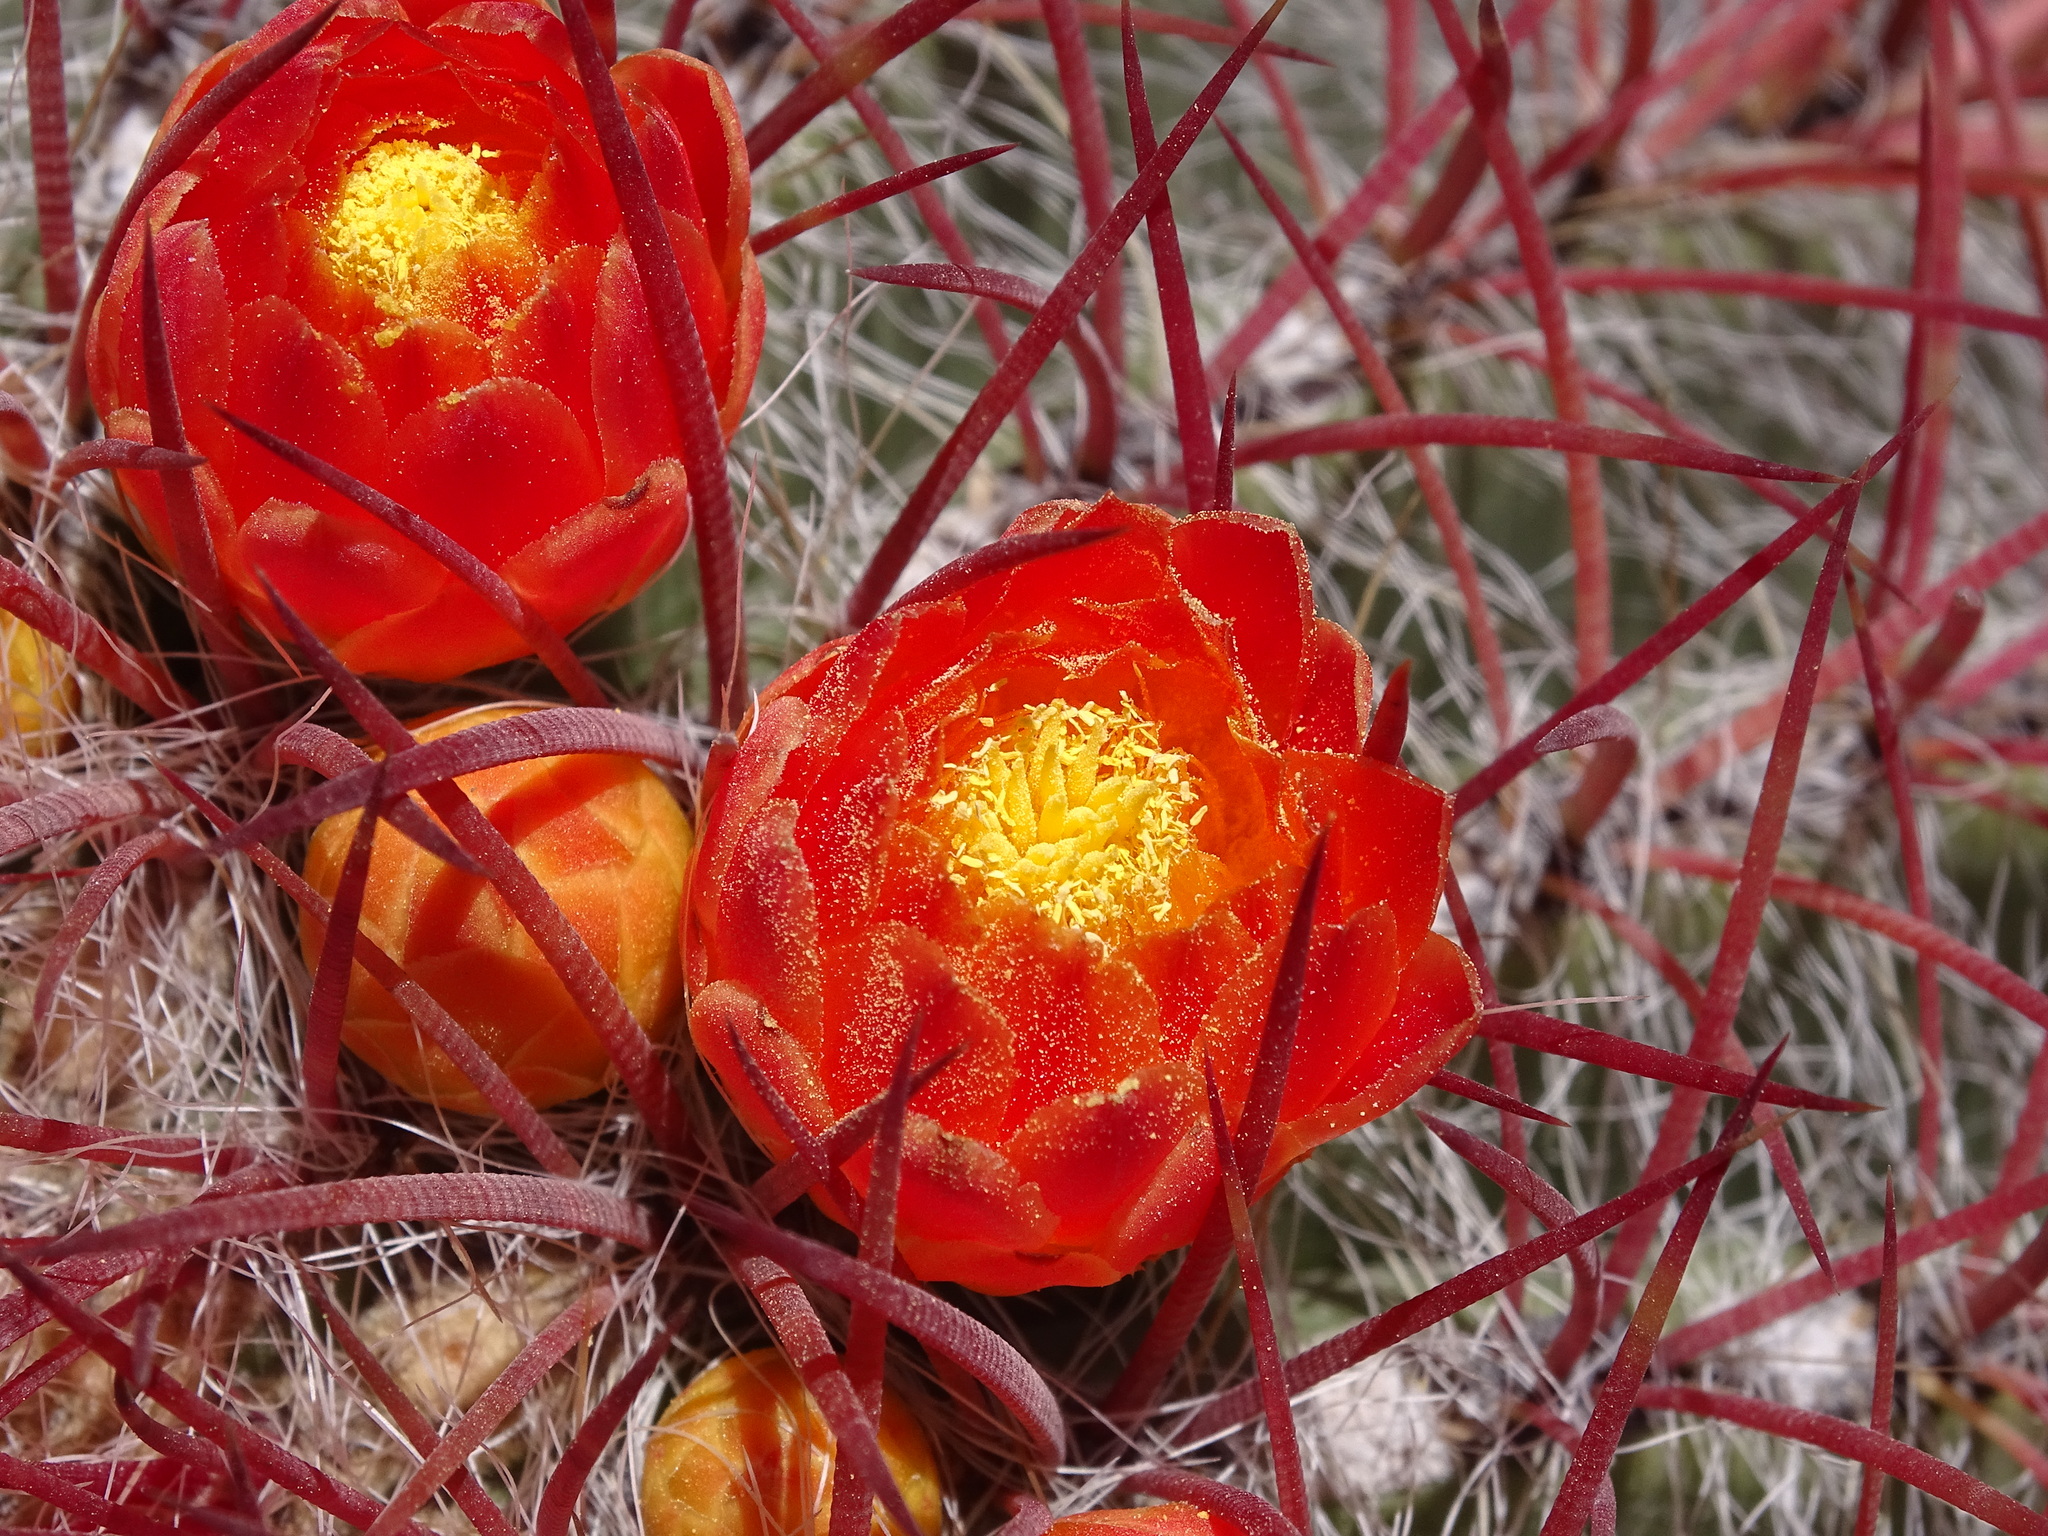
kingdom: Plantae
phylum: Tracheophyta
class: Magnoliopsida
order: Caryophyllales
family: Cactaceae
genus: Ferocactus
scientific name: Ferocactus pilosus
